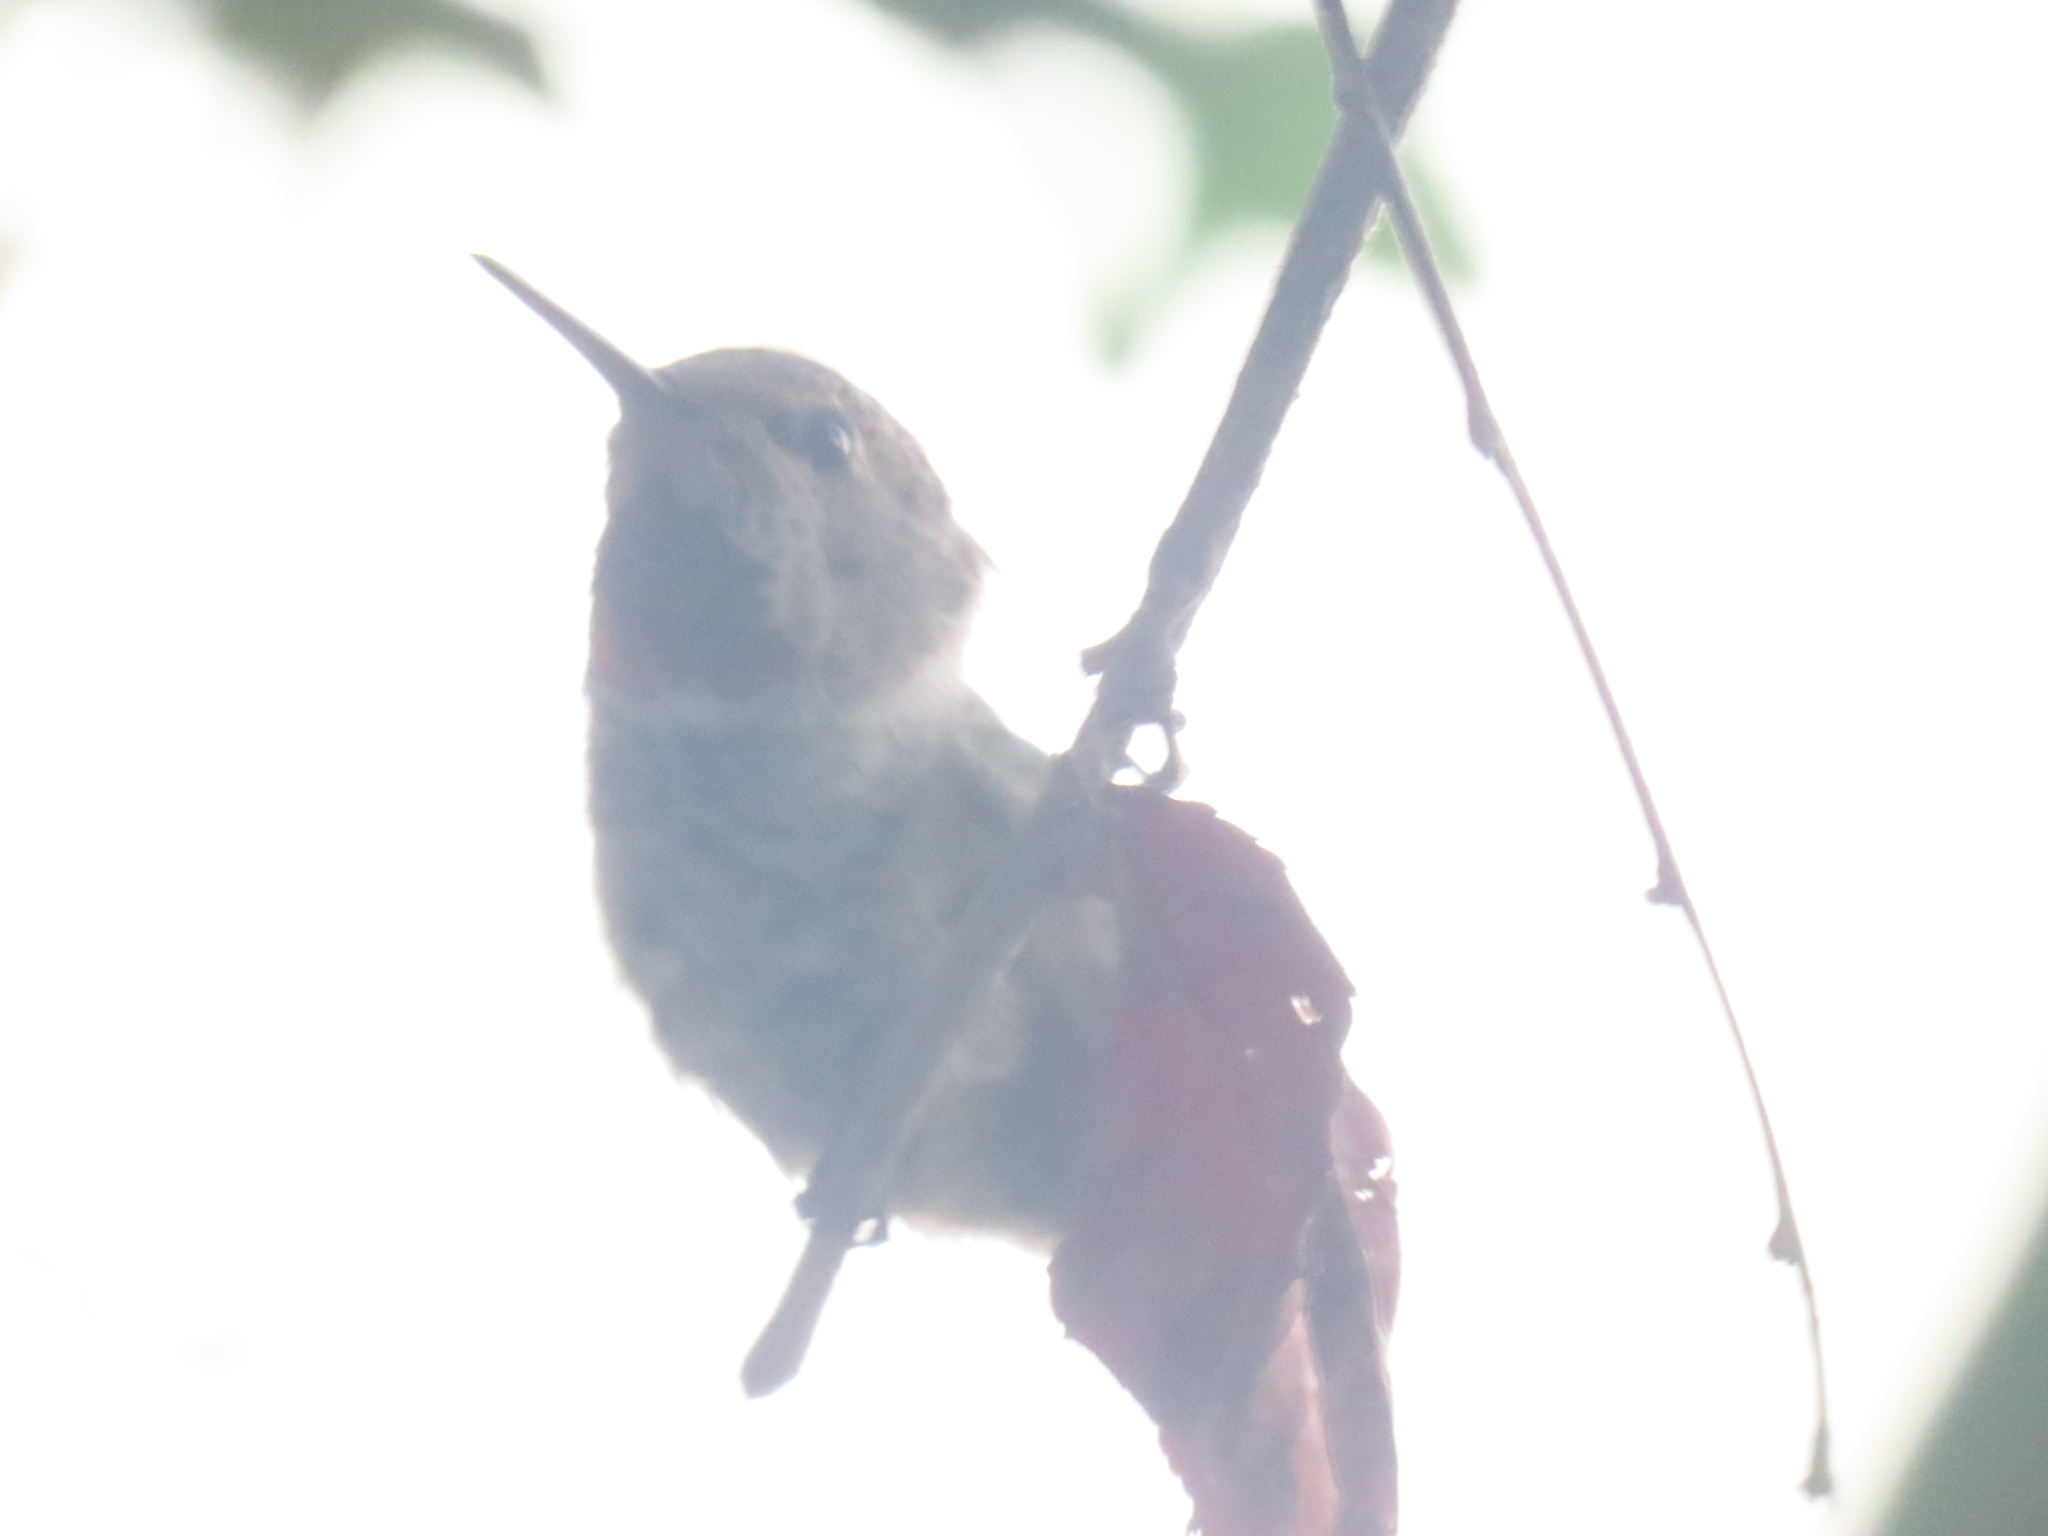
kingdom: Animalia
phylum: Chordata
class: Aves
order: Apodiformes
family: Trochilidae
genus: Calypte
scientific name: Calypte anna
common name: Anna's hummingbird
